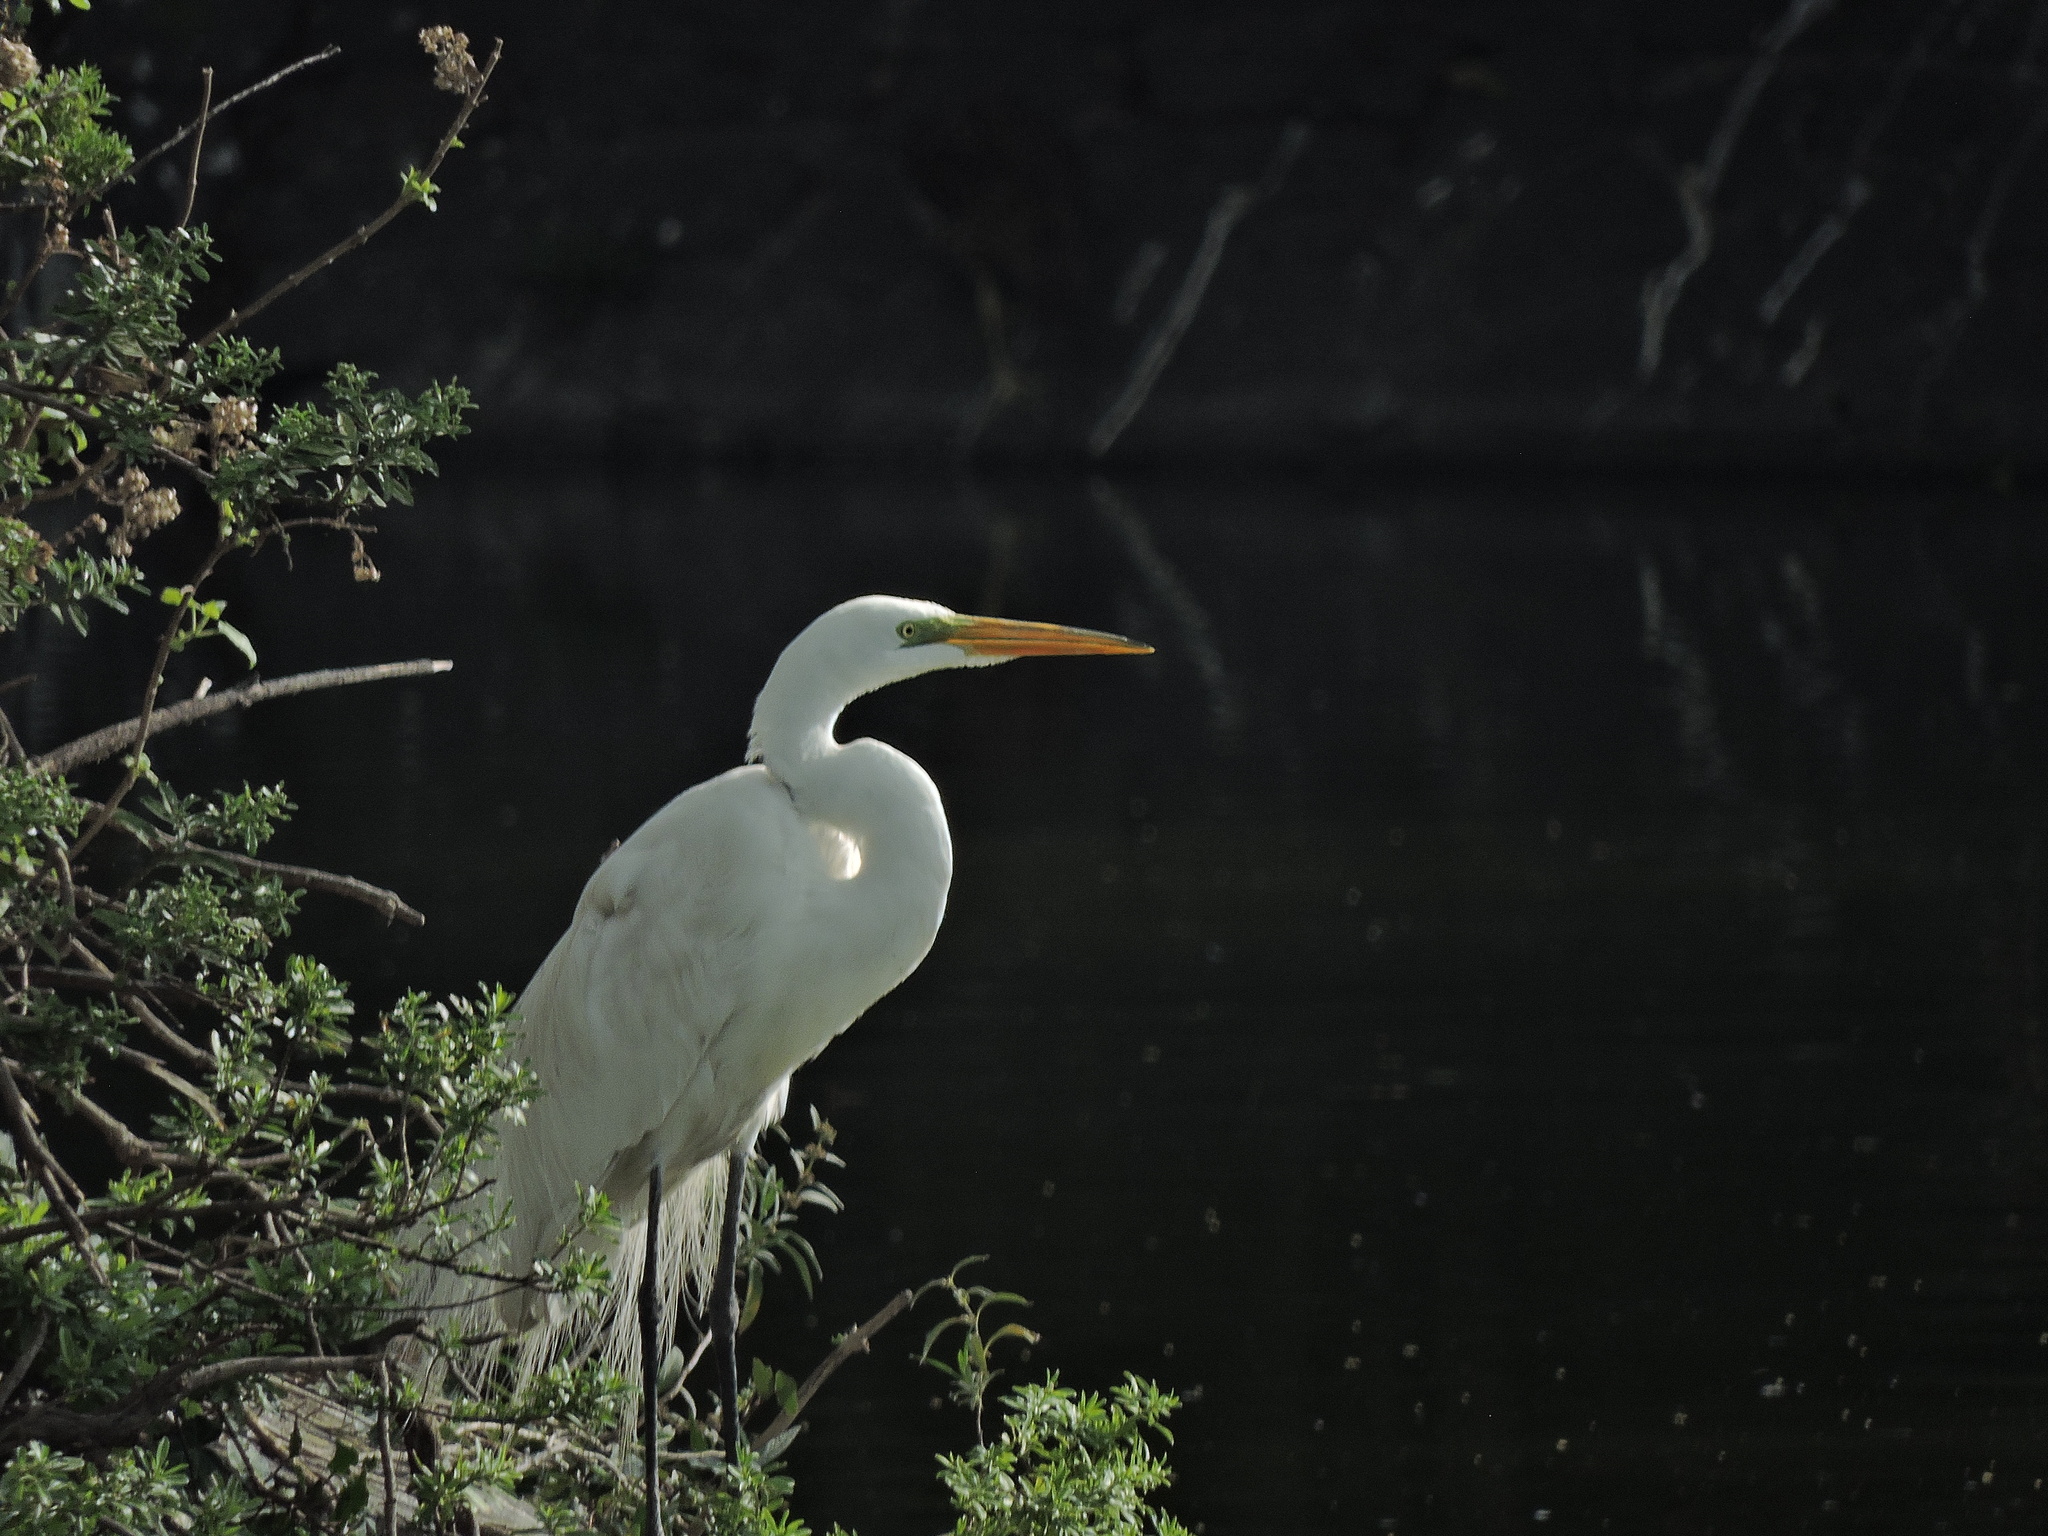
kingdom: Animalia
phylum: Chordata
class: Aves
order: Pelecaniformes
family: Ardeidae
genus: Ardea
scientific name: Ardea alba
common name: Great egret
